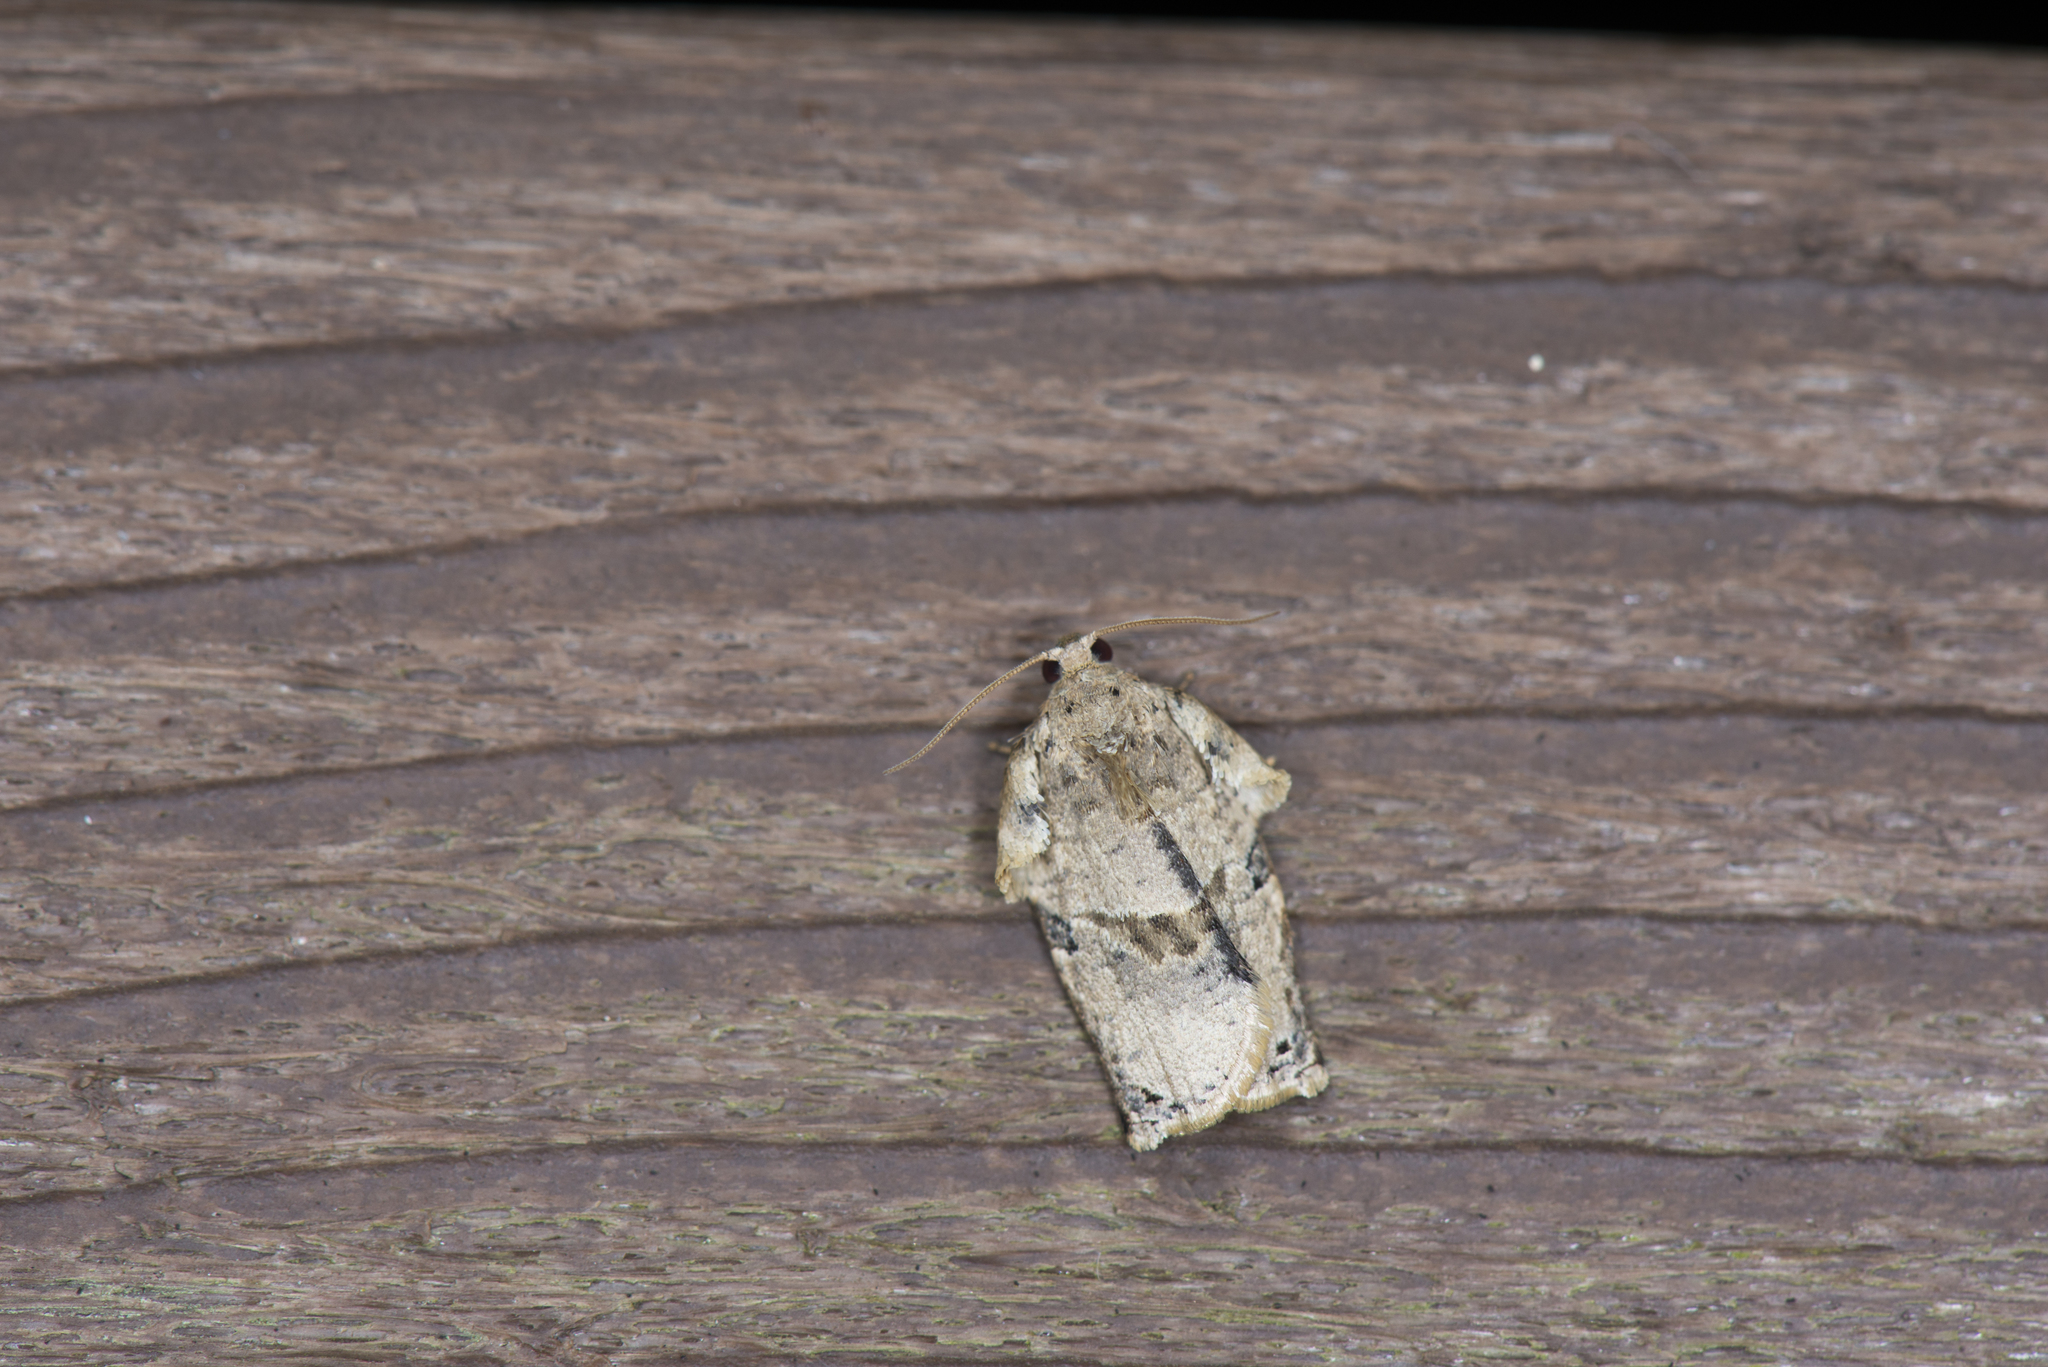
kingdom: Animalia
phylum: Arthropoda
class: Insecta
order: Lepidoptera
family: Tortricidae
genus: Homona
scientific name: Homona spargotis
